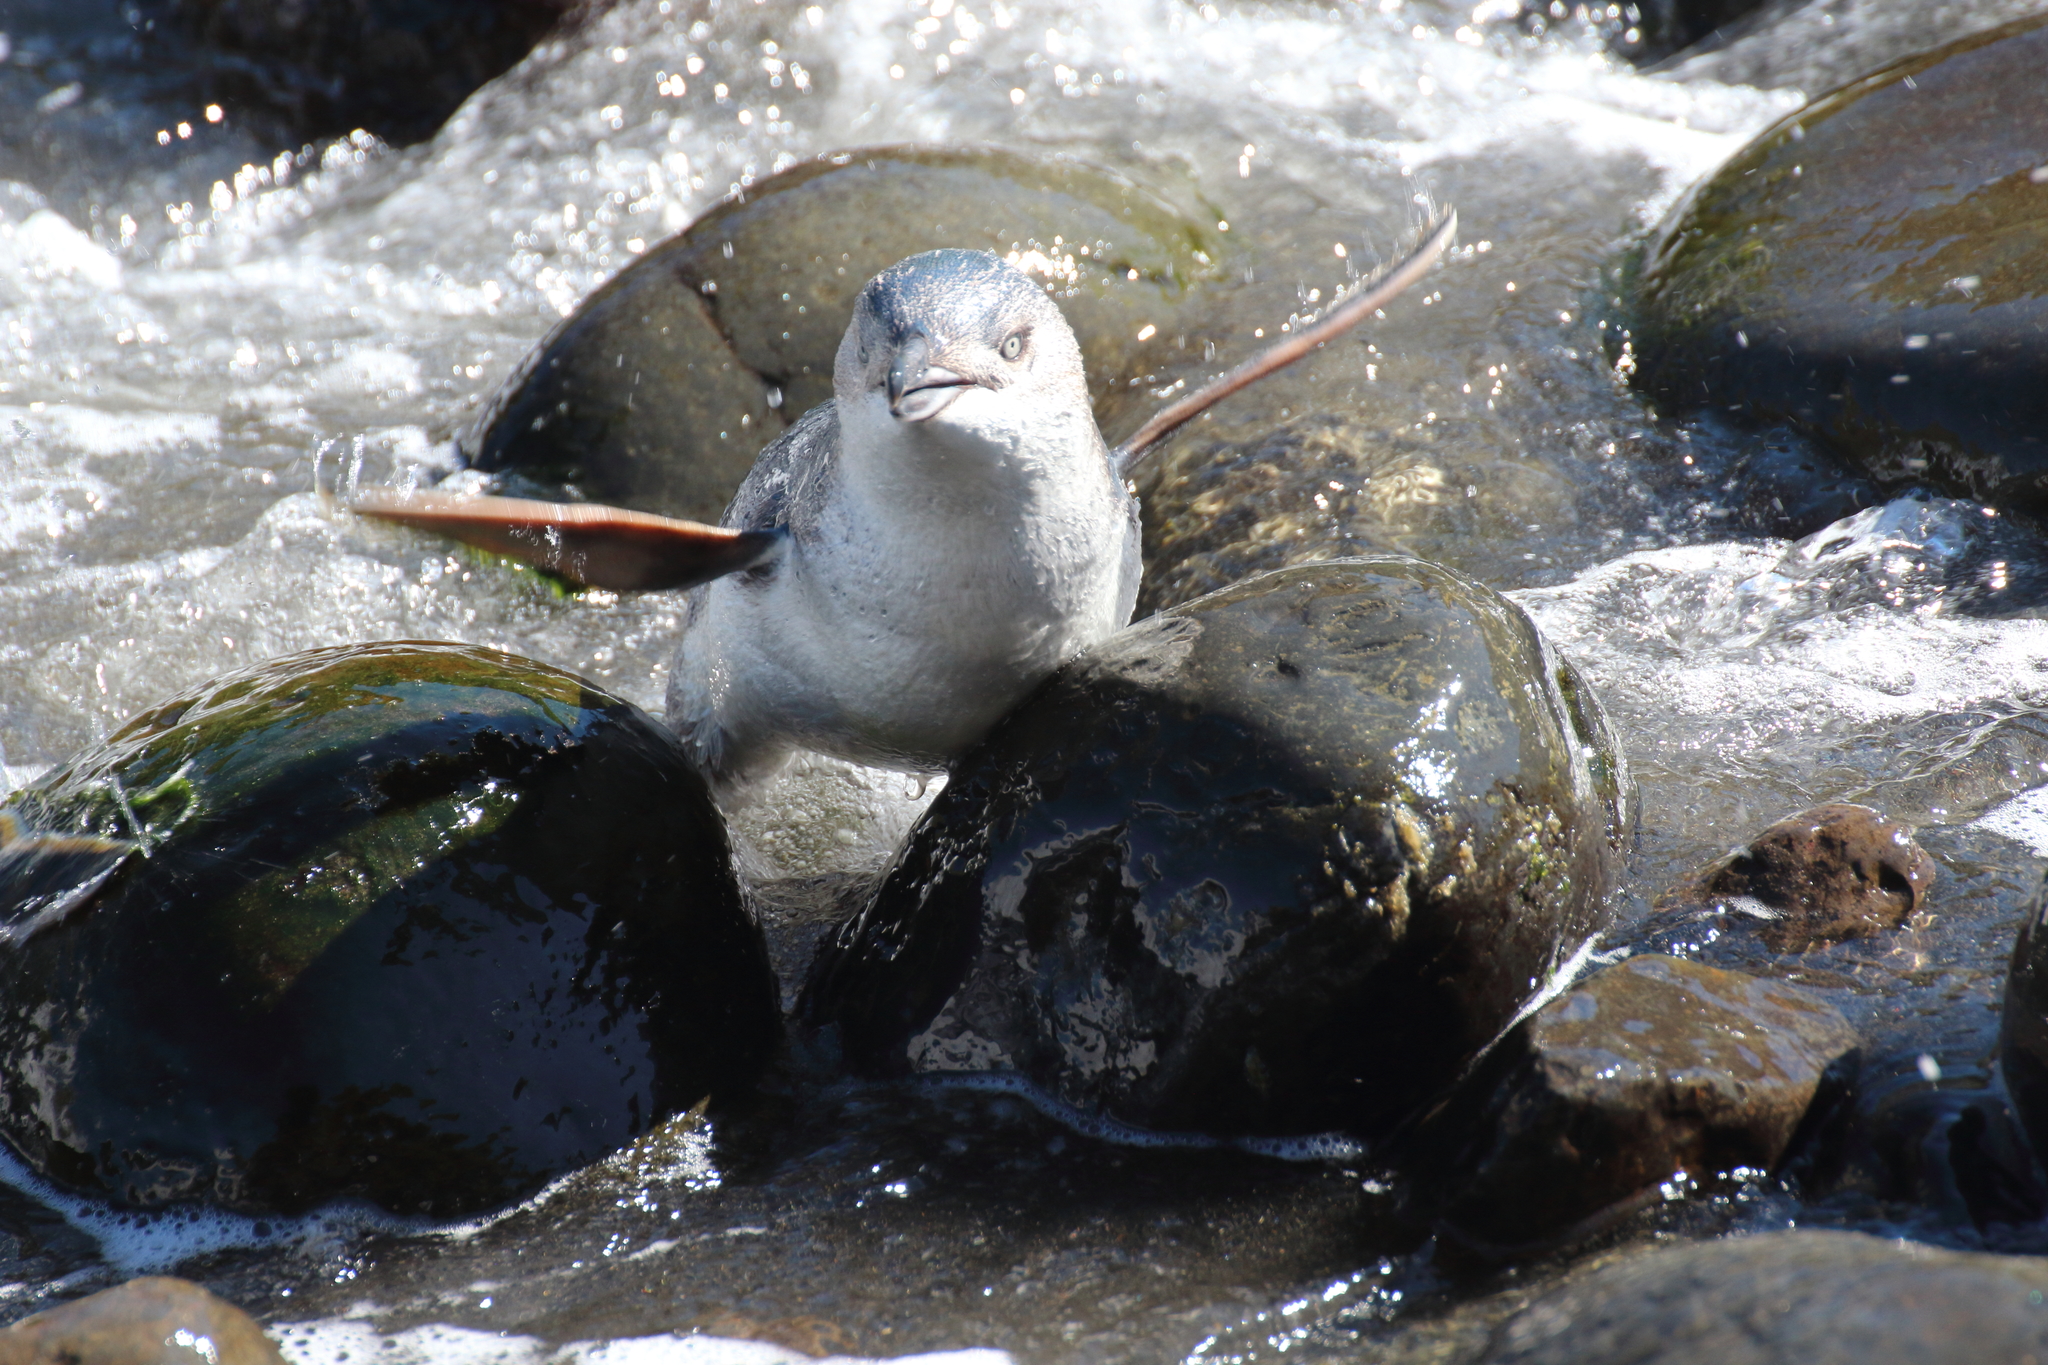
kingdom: Animalia
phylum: Chordata
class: Aves
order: Sphenisciformes
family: Spheniscidae
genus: Eudyptula
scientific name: Eudyptula minor
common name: Little penguin
